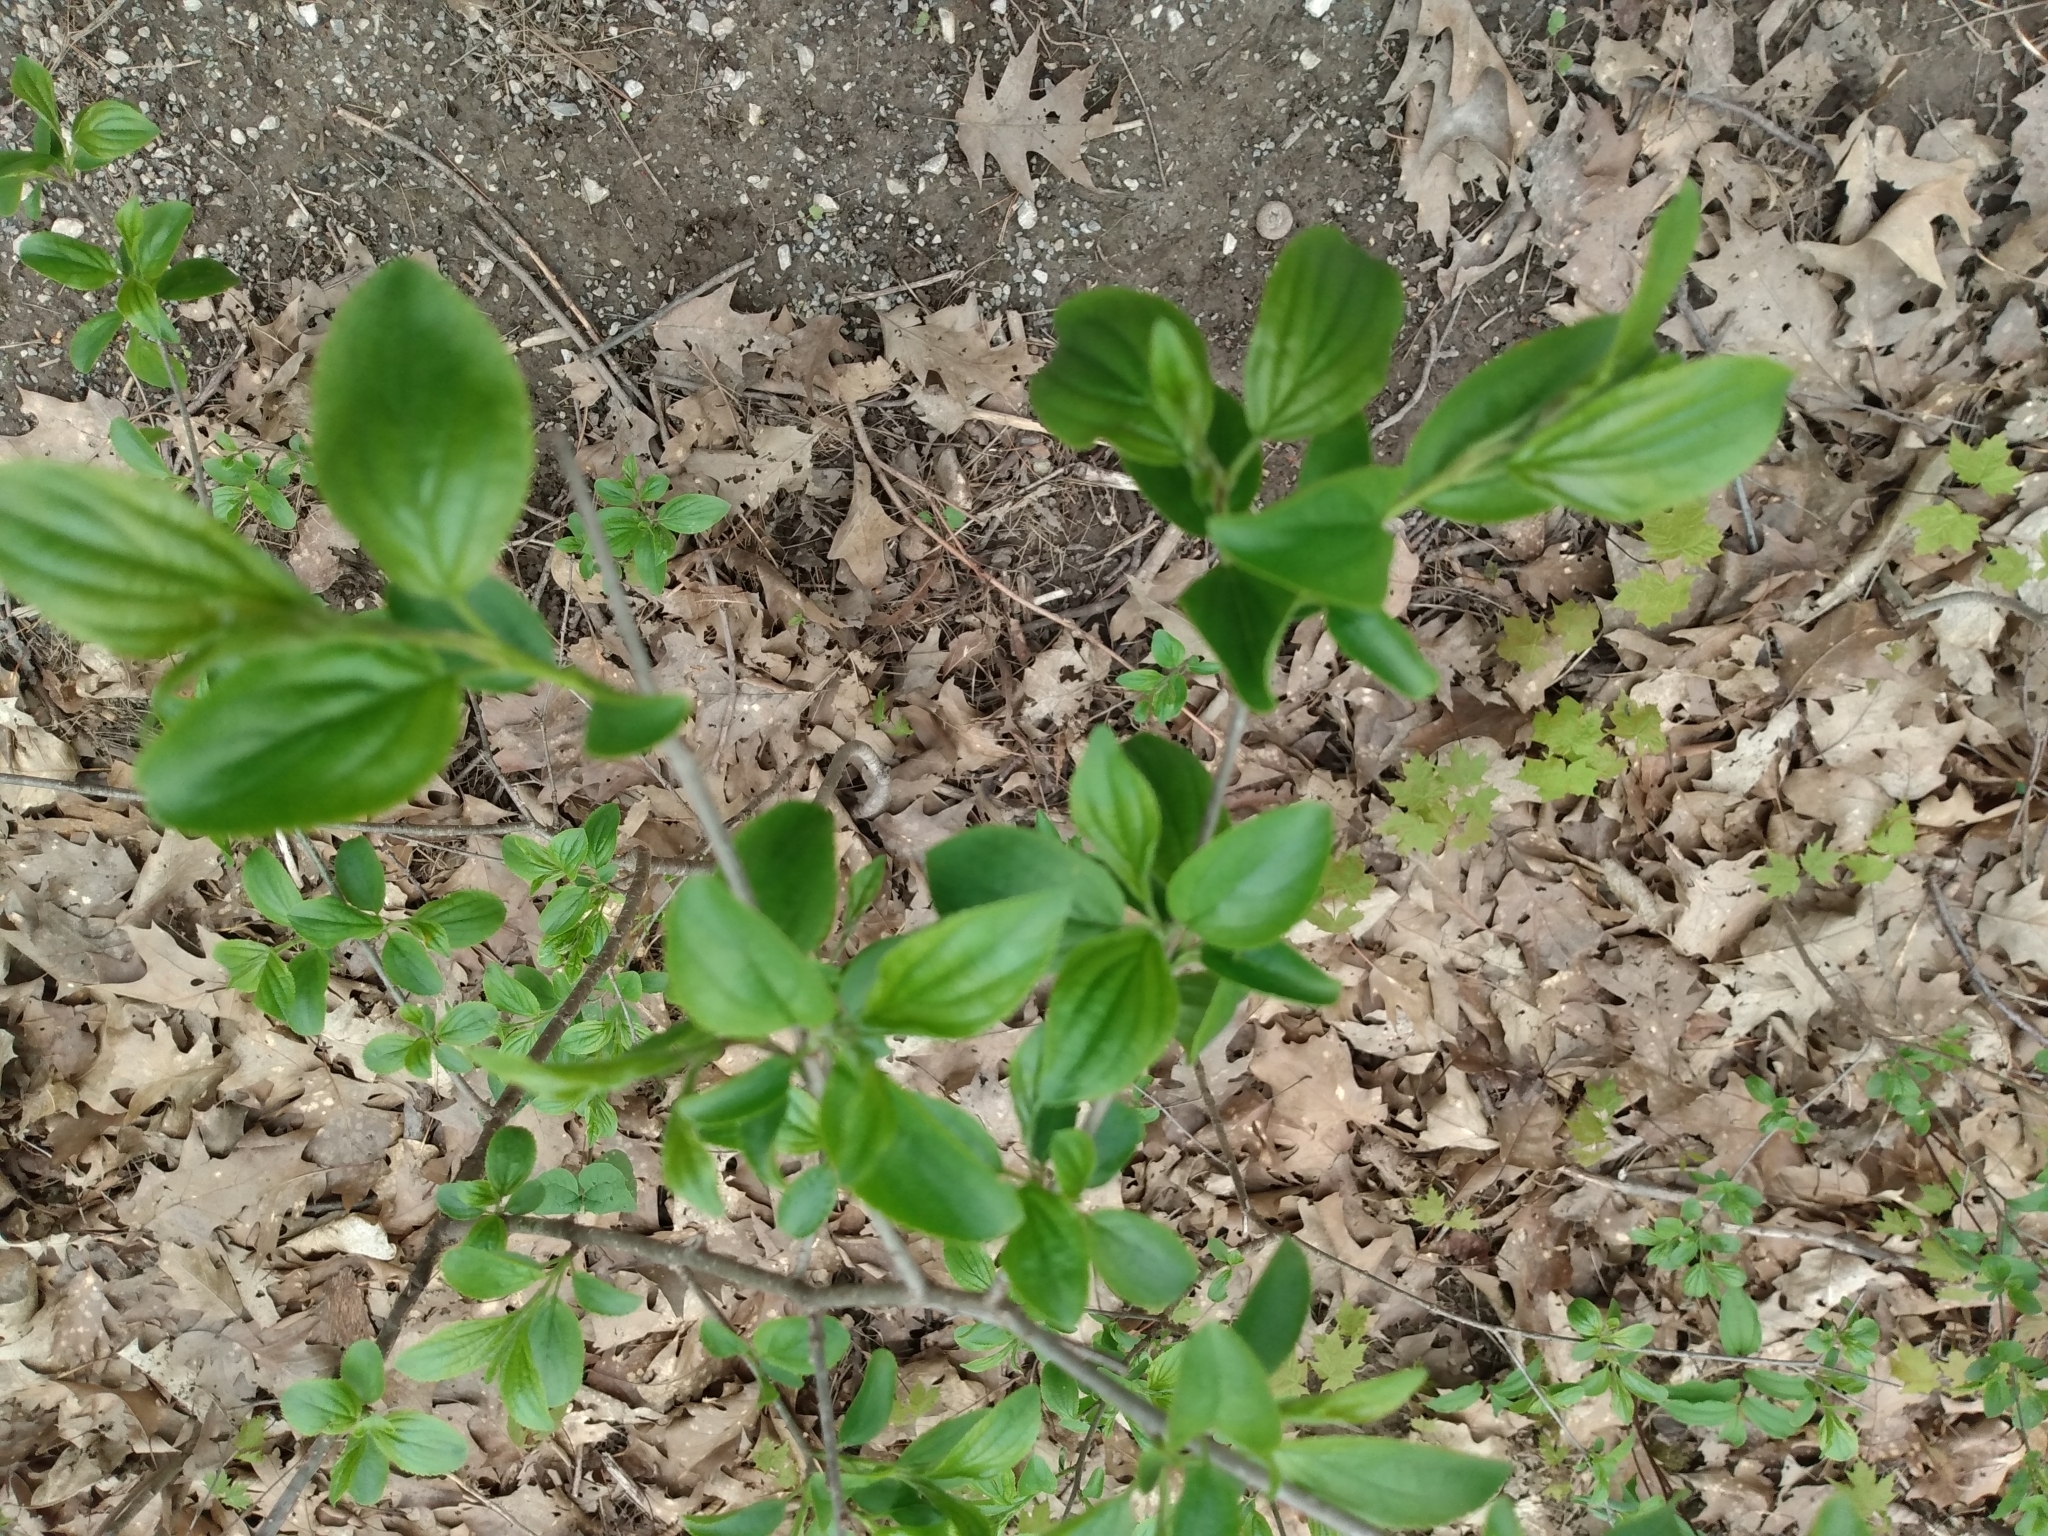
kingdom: Plantae
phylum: Tracheophyta
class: Magnoliopsida
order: Rosales
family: Rhamnaceae
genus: Rhamnus
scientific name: Rhamnus cathartica
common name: Common buckthorn
